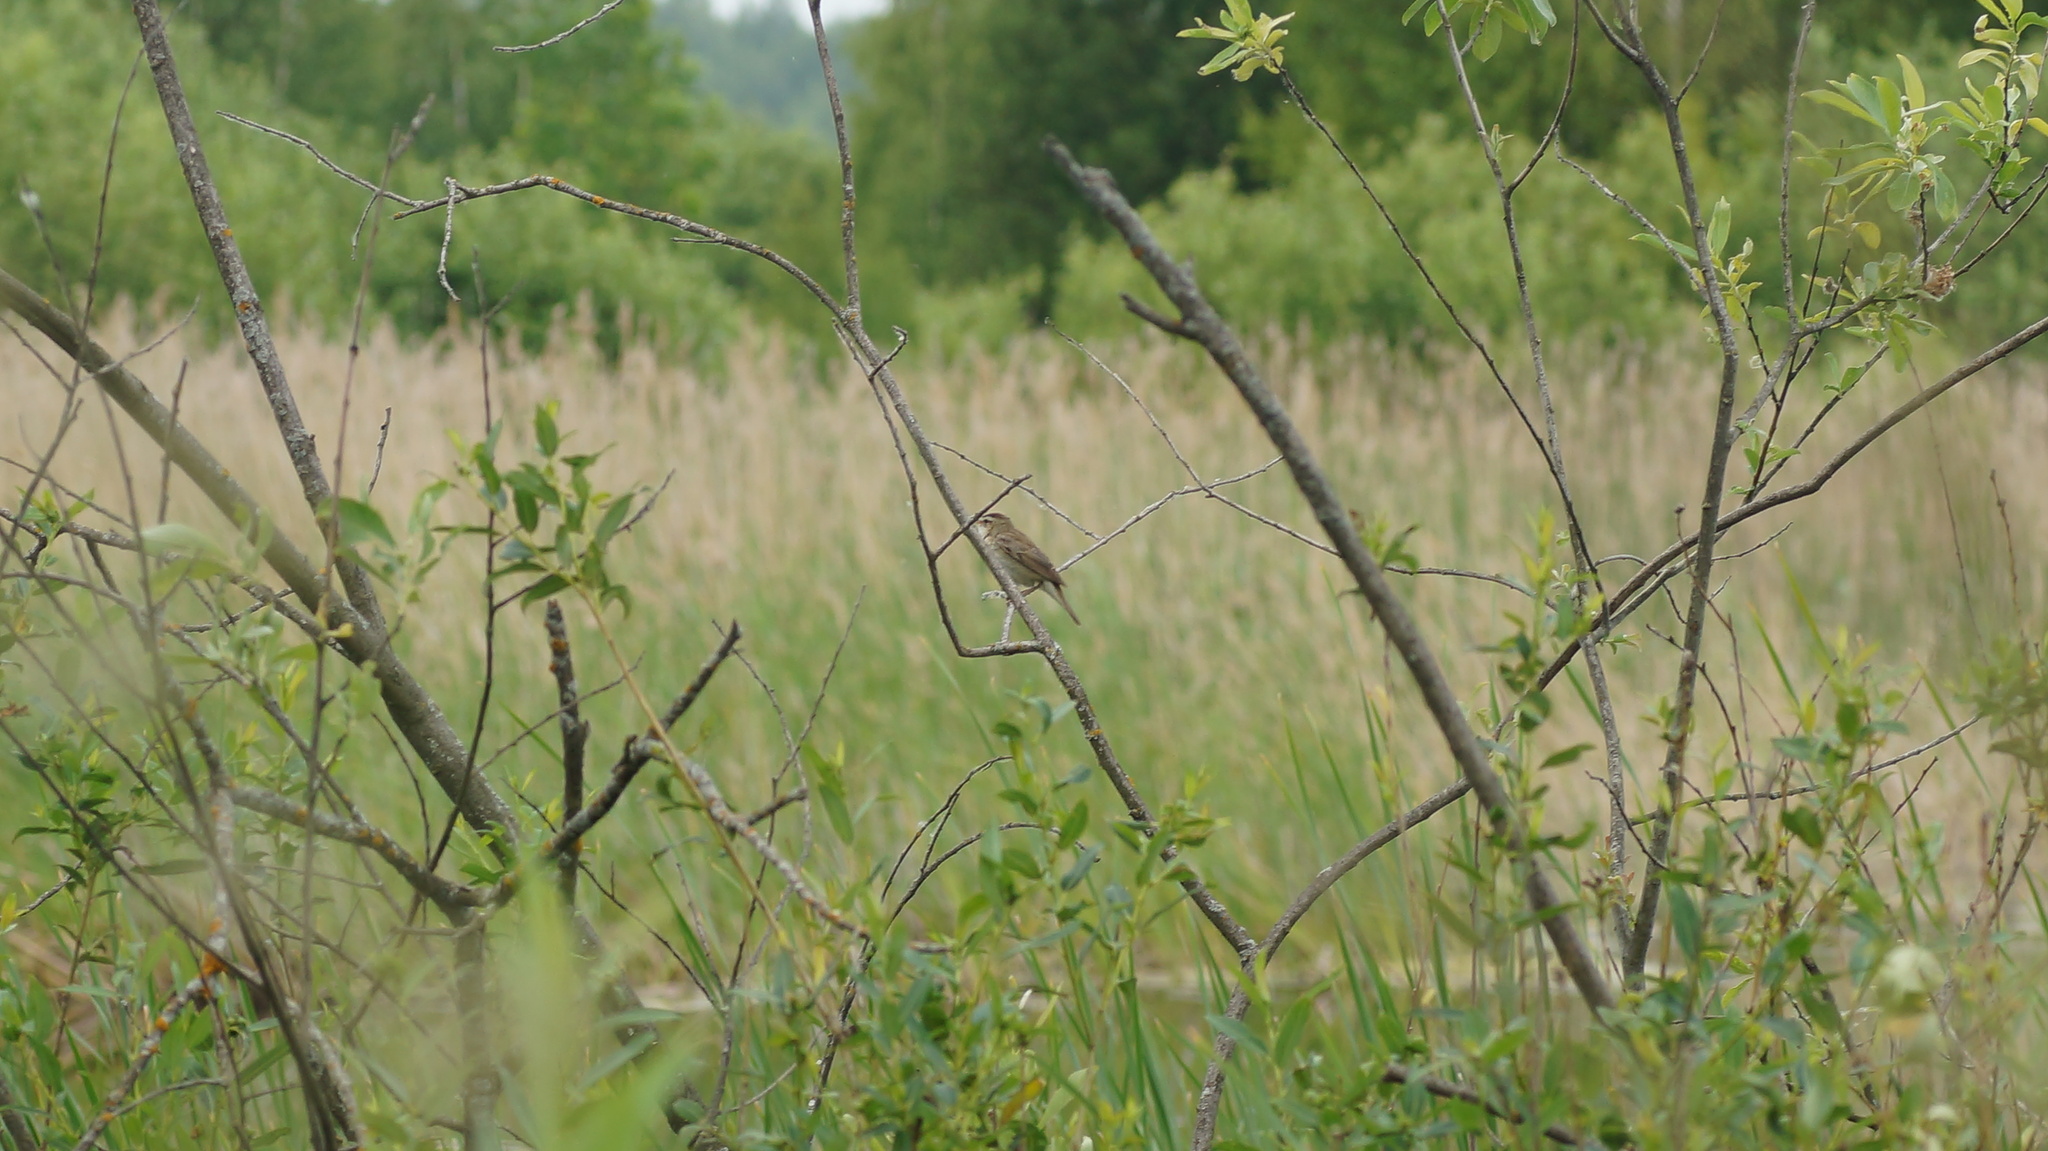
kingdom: Animalia
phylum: Chordata
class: Aves
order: Passeriformes
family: Acrocephalidae
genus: Acrocephalus
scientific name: Acrocephalus schoenobaenus
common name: Sedge warbler
